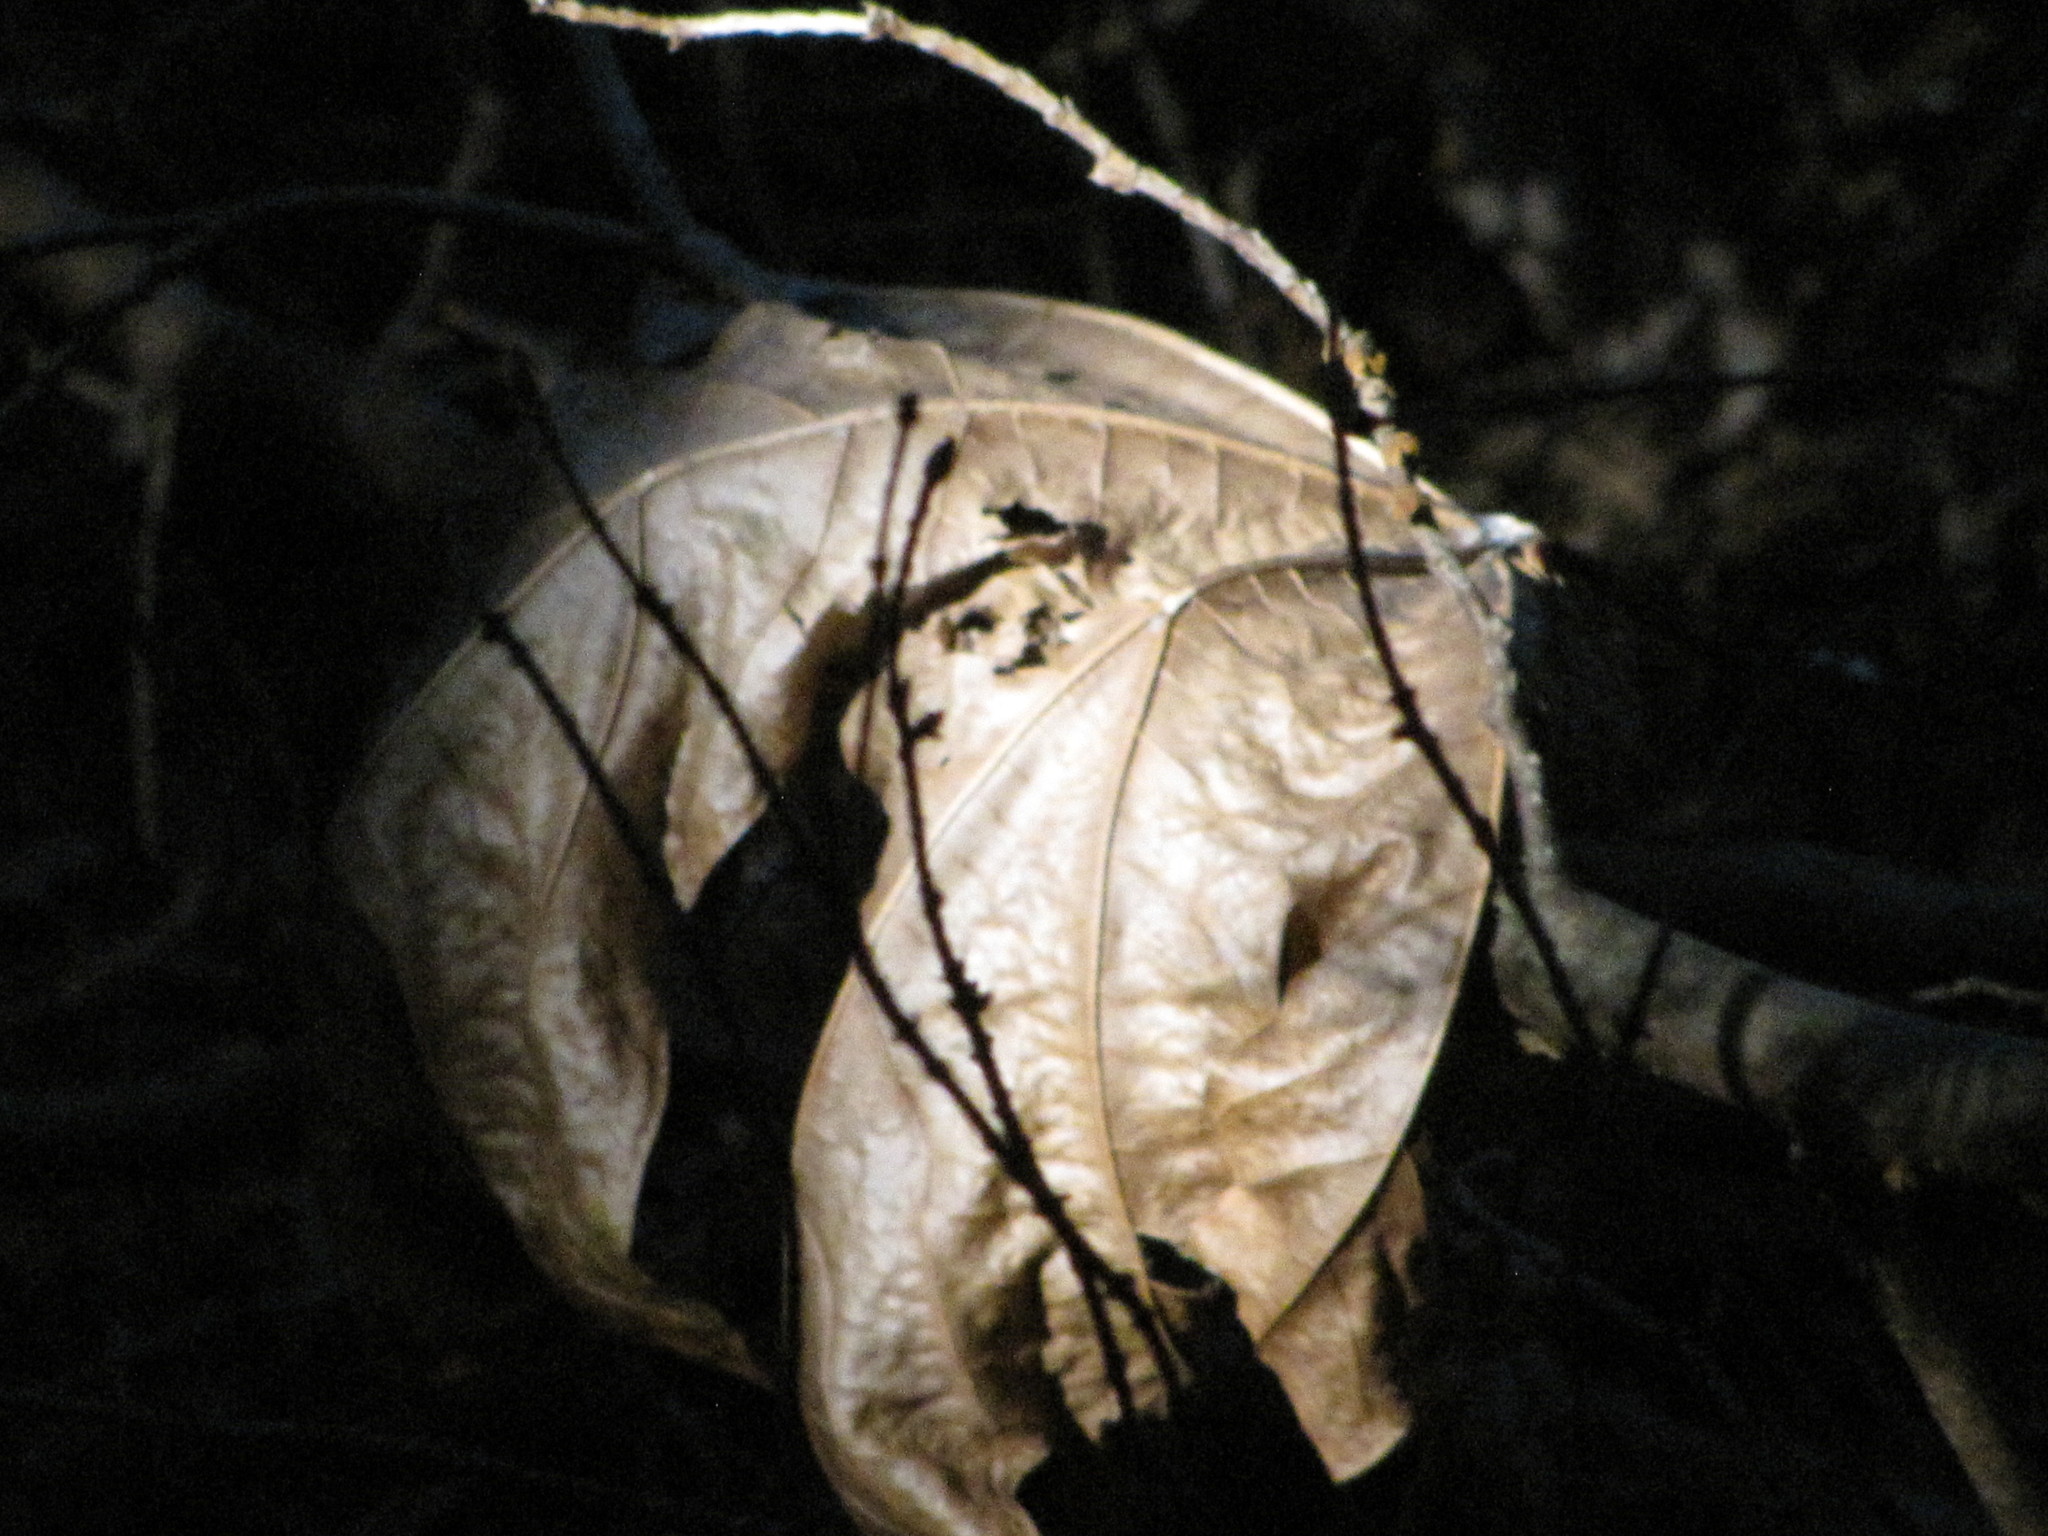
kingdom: Plantae
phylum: Tracheophyta
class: Magnoliopsida
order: Sapindales
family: Sapindaceae
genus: Acer
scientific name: Acer macrophyllum
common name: Oregon maple
